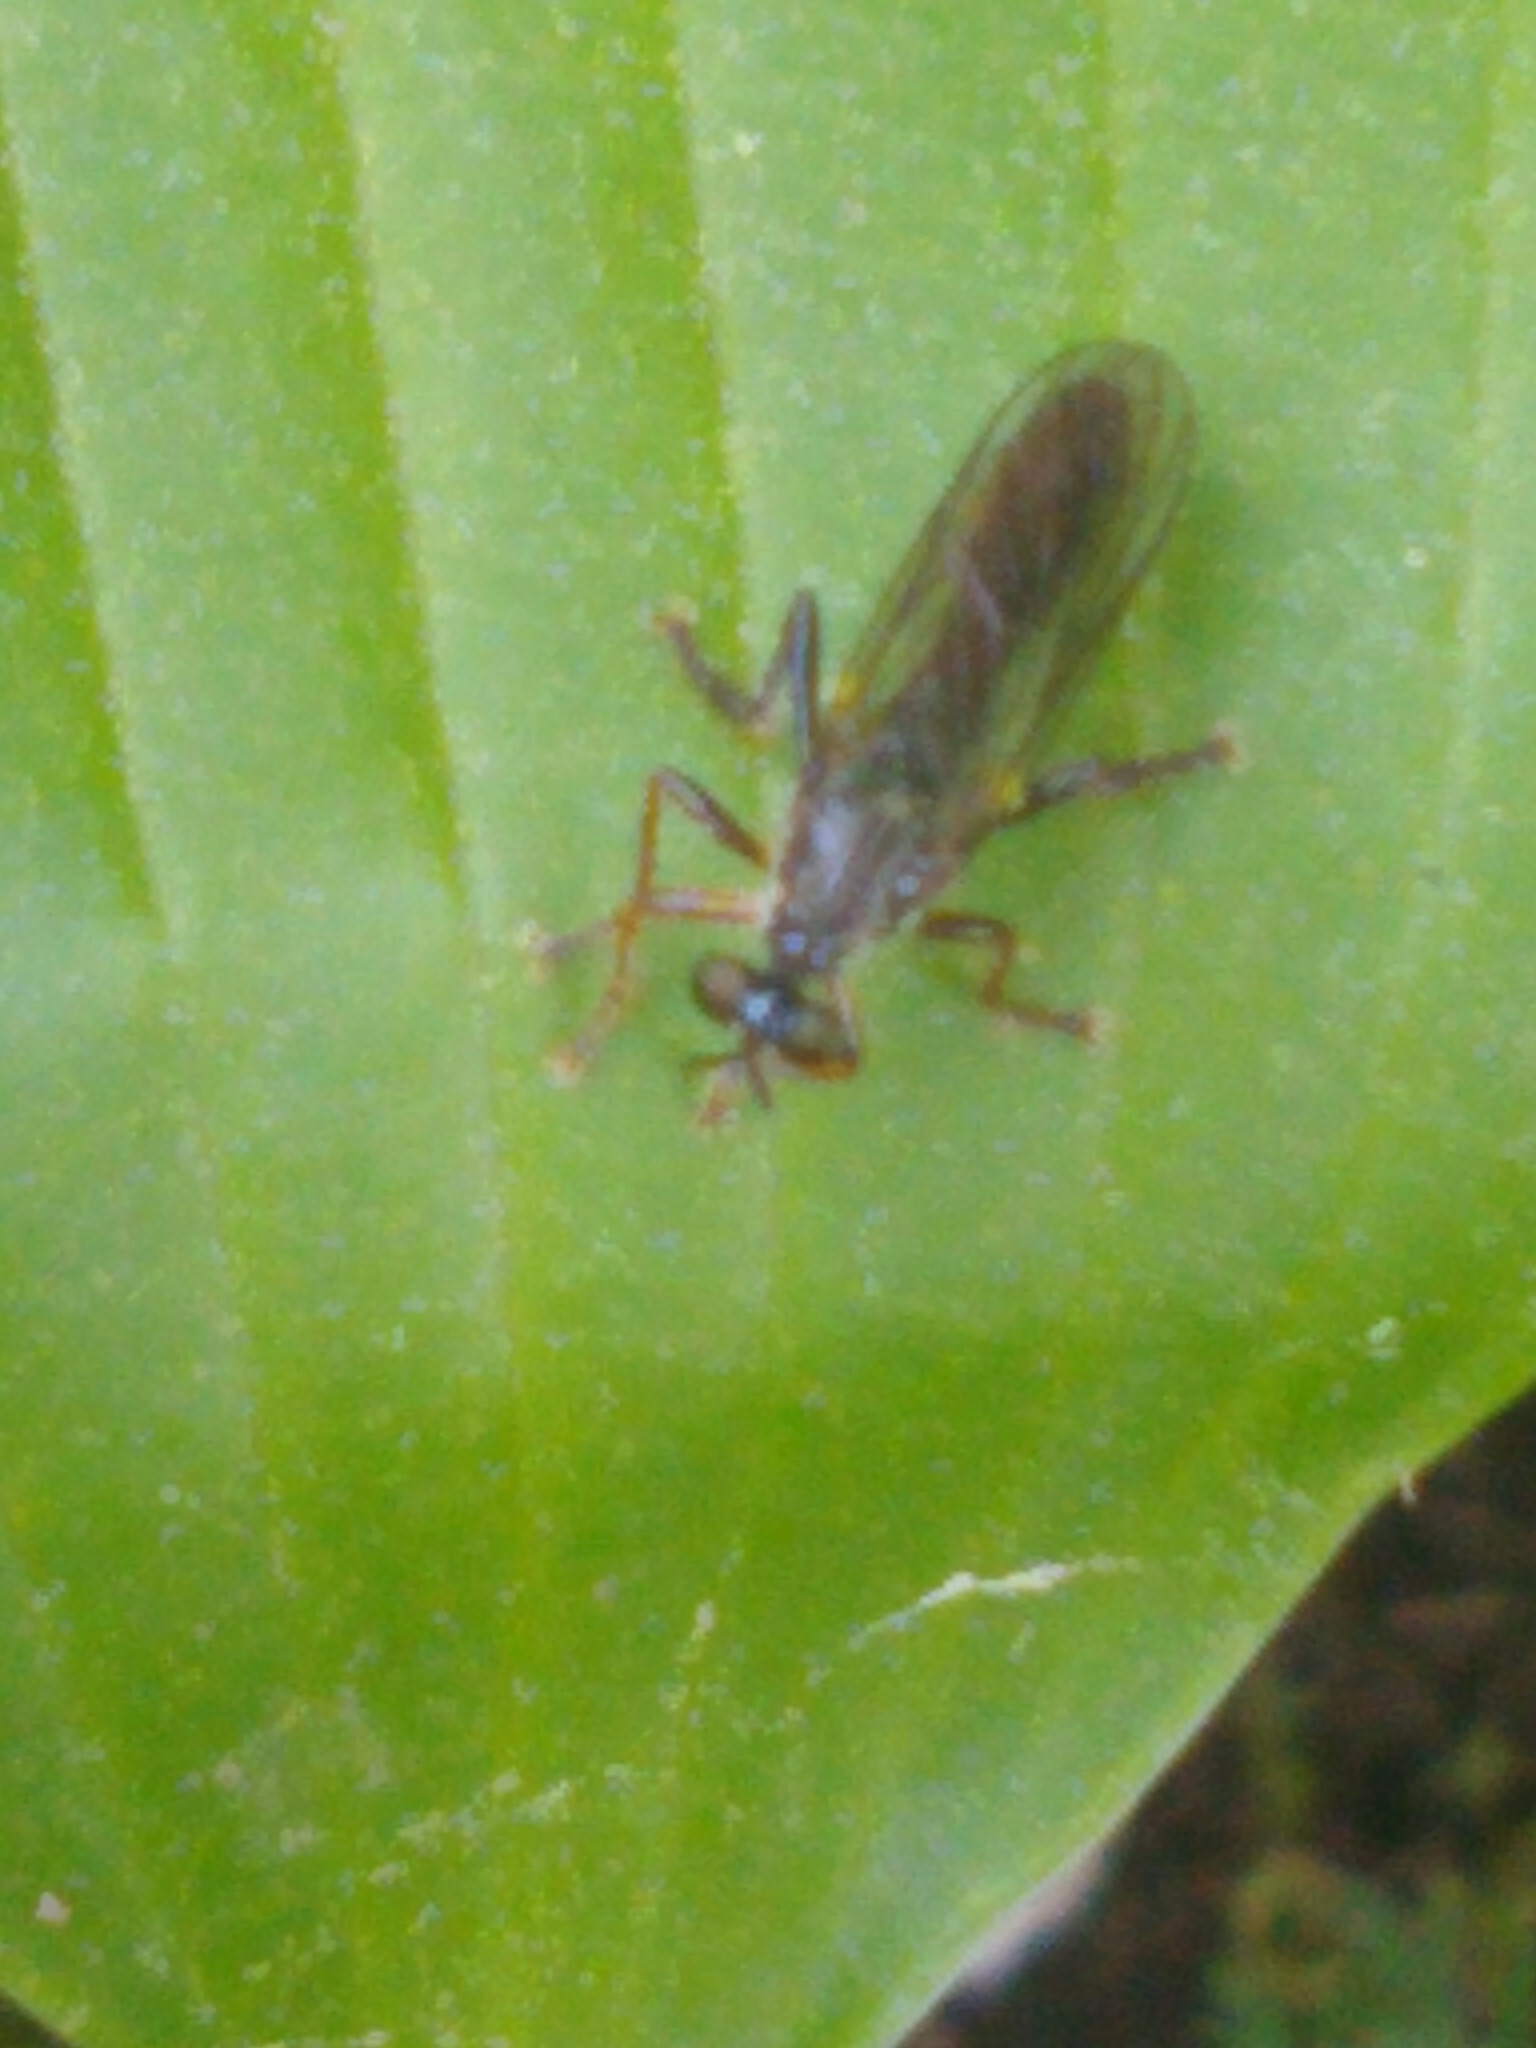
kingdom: Animalia
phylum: Arthropoda
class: Insecta
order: Diptera
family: Asilidae
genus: Dioctria
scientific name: Dioctria hyalipennis
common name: Stripe-legged robberfly
